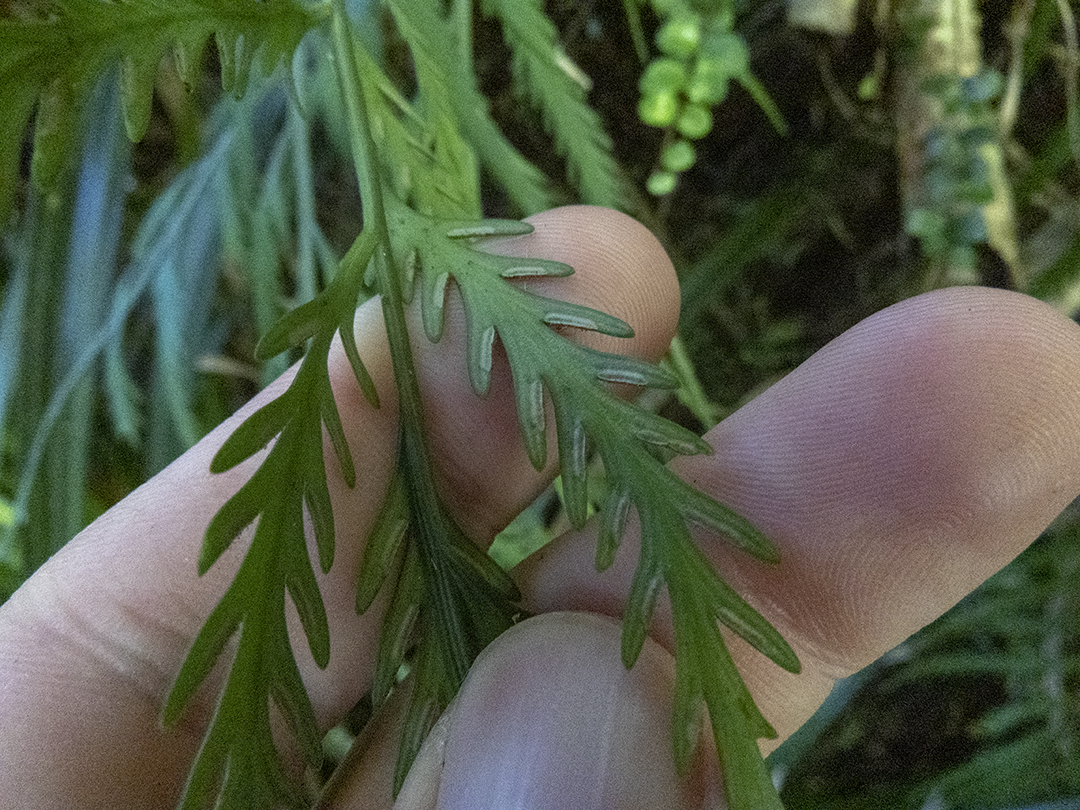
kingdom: Plantae
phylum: Tracheophyta
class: Polypodiopsida
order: Polypodiales
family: Aspleniaceae
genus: Asplenium
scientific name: Asplenium flaccidum
